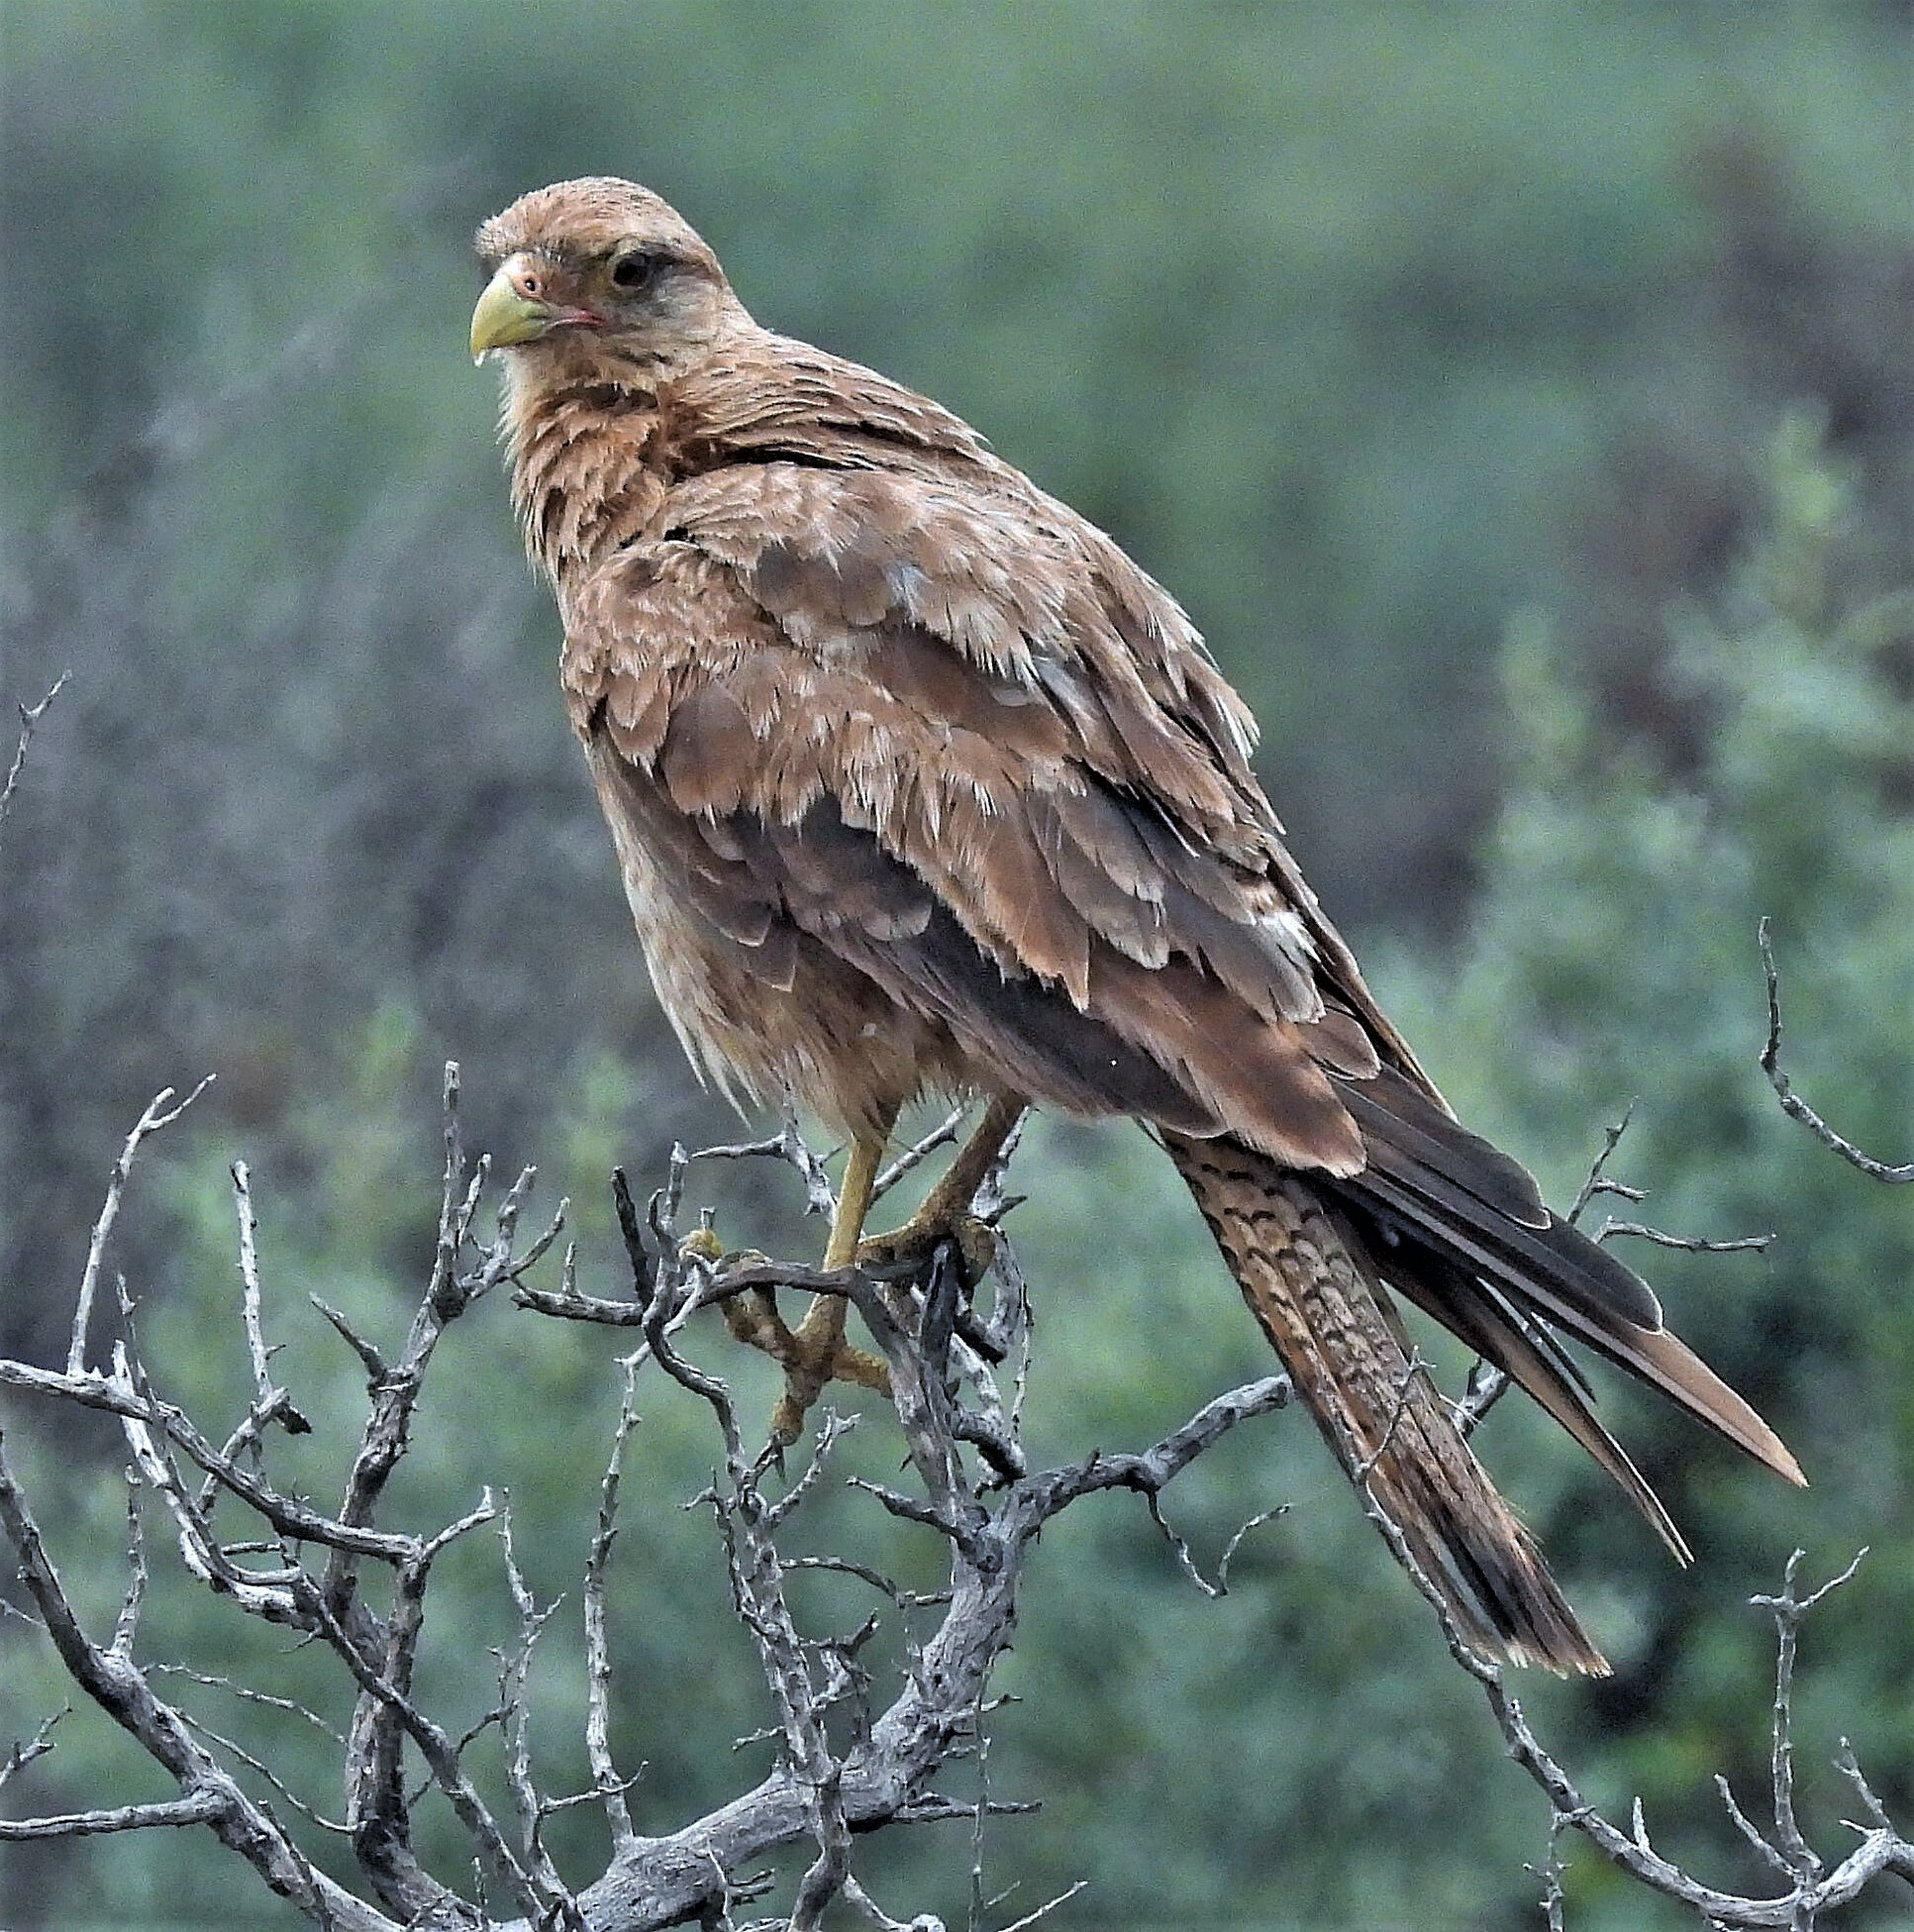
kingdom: Animalia
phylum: Chordata
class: Aves
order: Falconiformes
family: Falconidae
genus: Daptrius
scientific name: Daptrius
